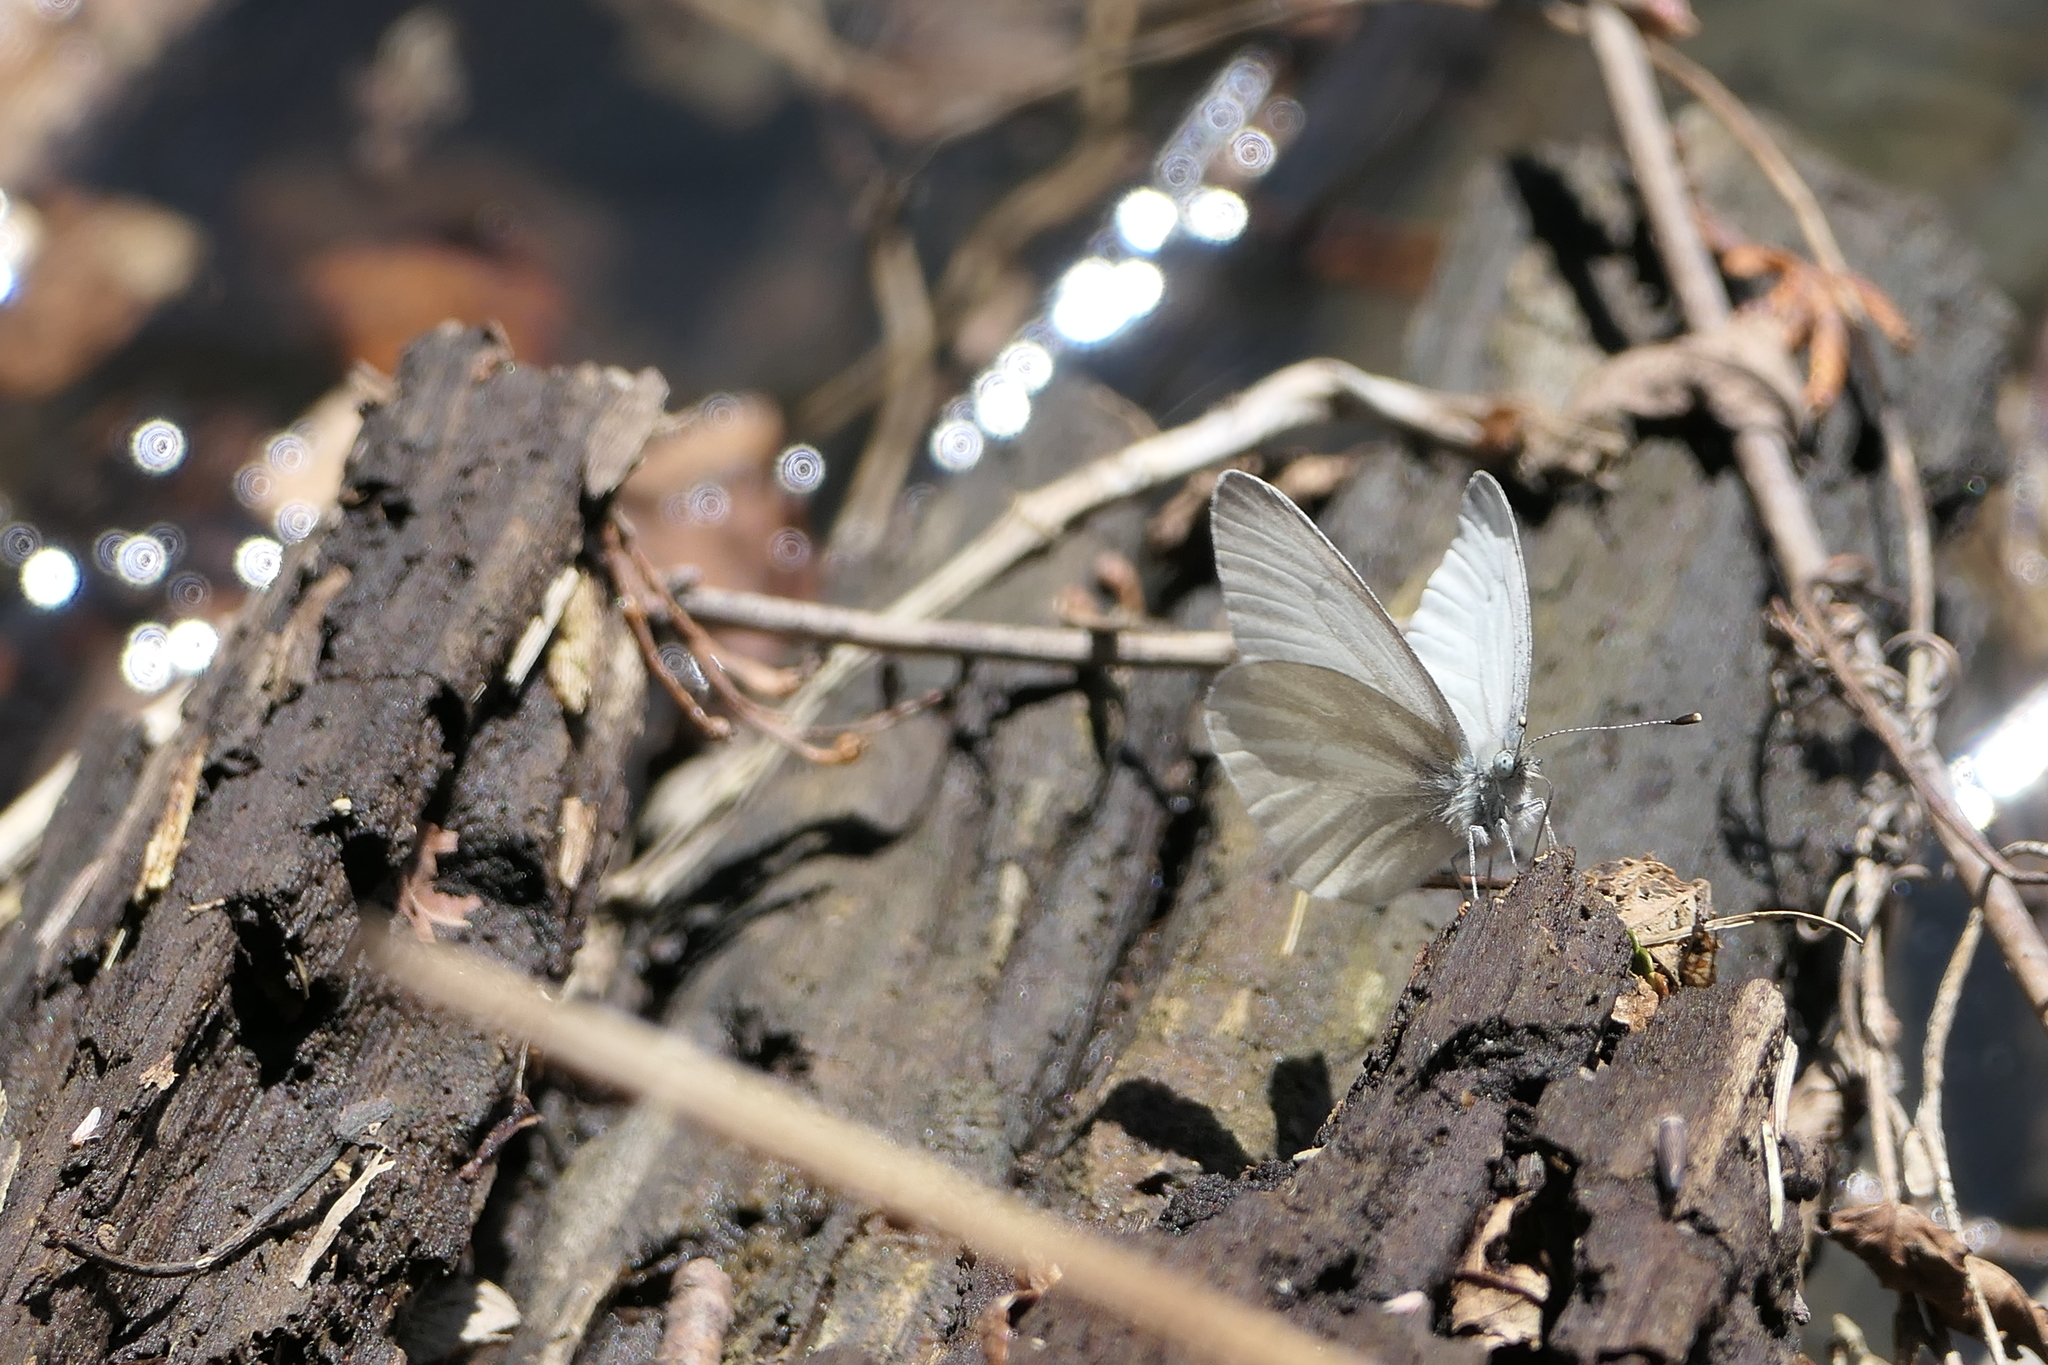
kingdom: Animalia
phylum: Arthropoda
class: Insecta
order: Lepidoptera
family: Pieridae
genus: Pieris
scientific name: Pieris virginiensis
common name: West virginia white
